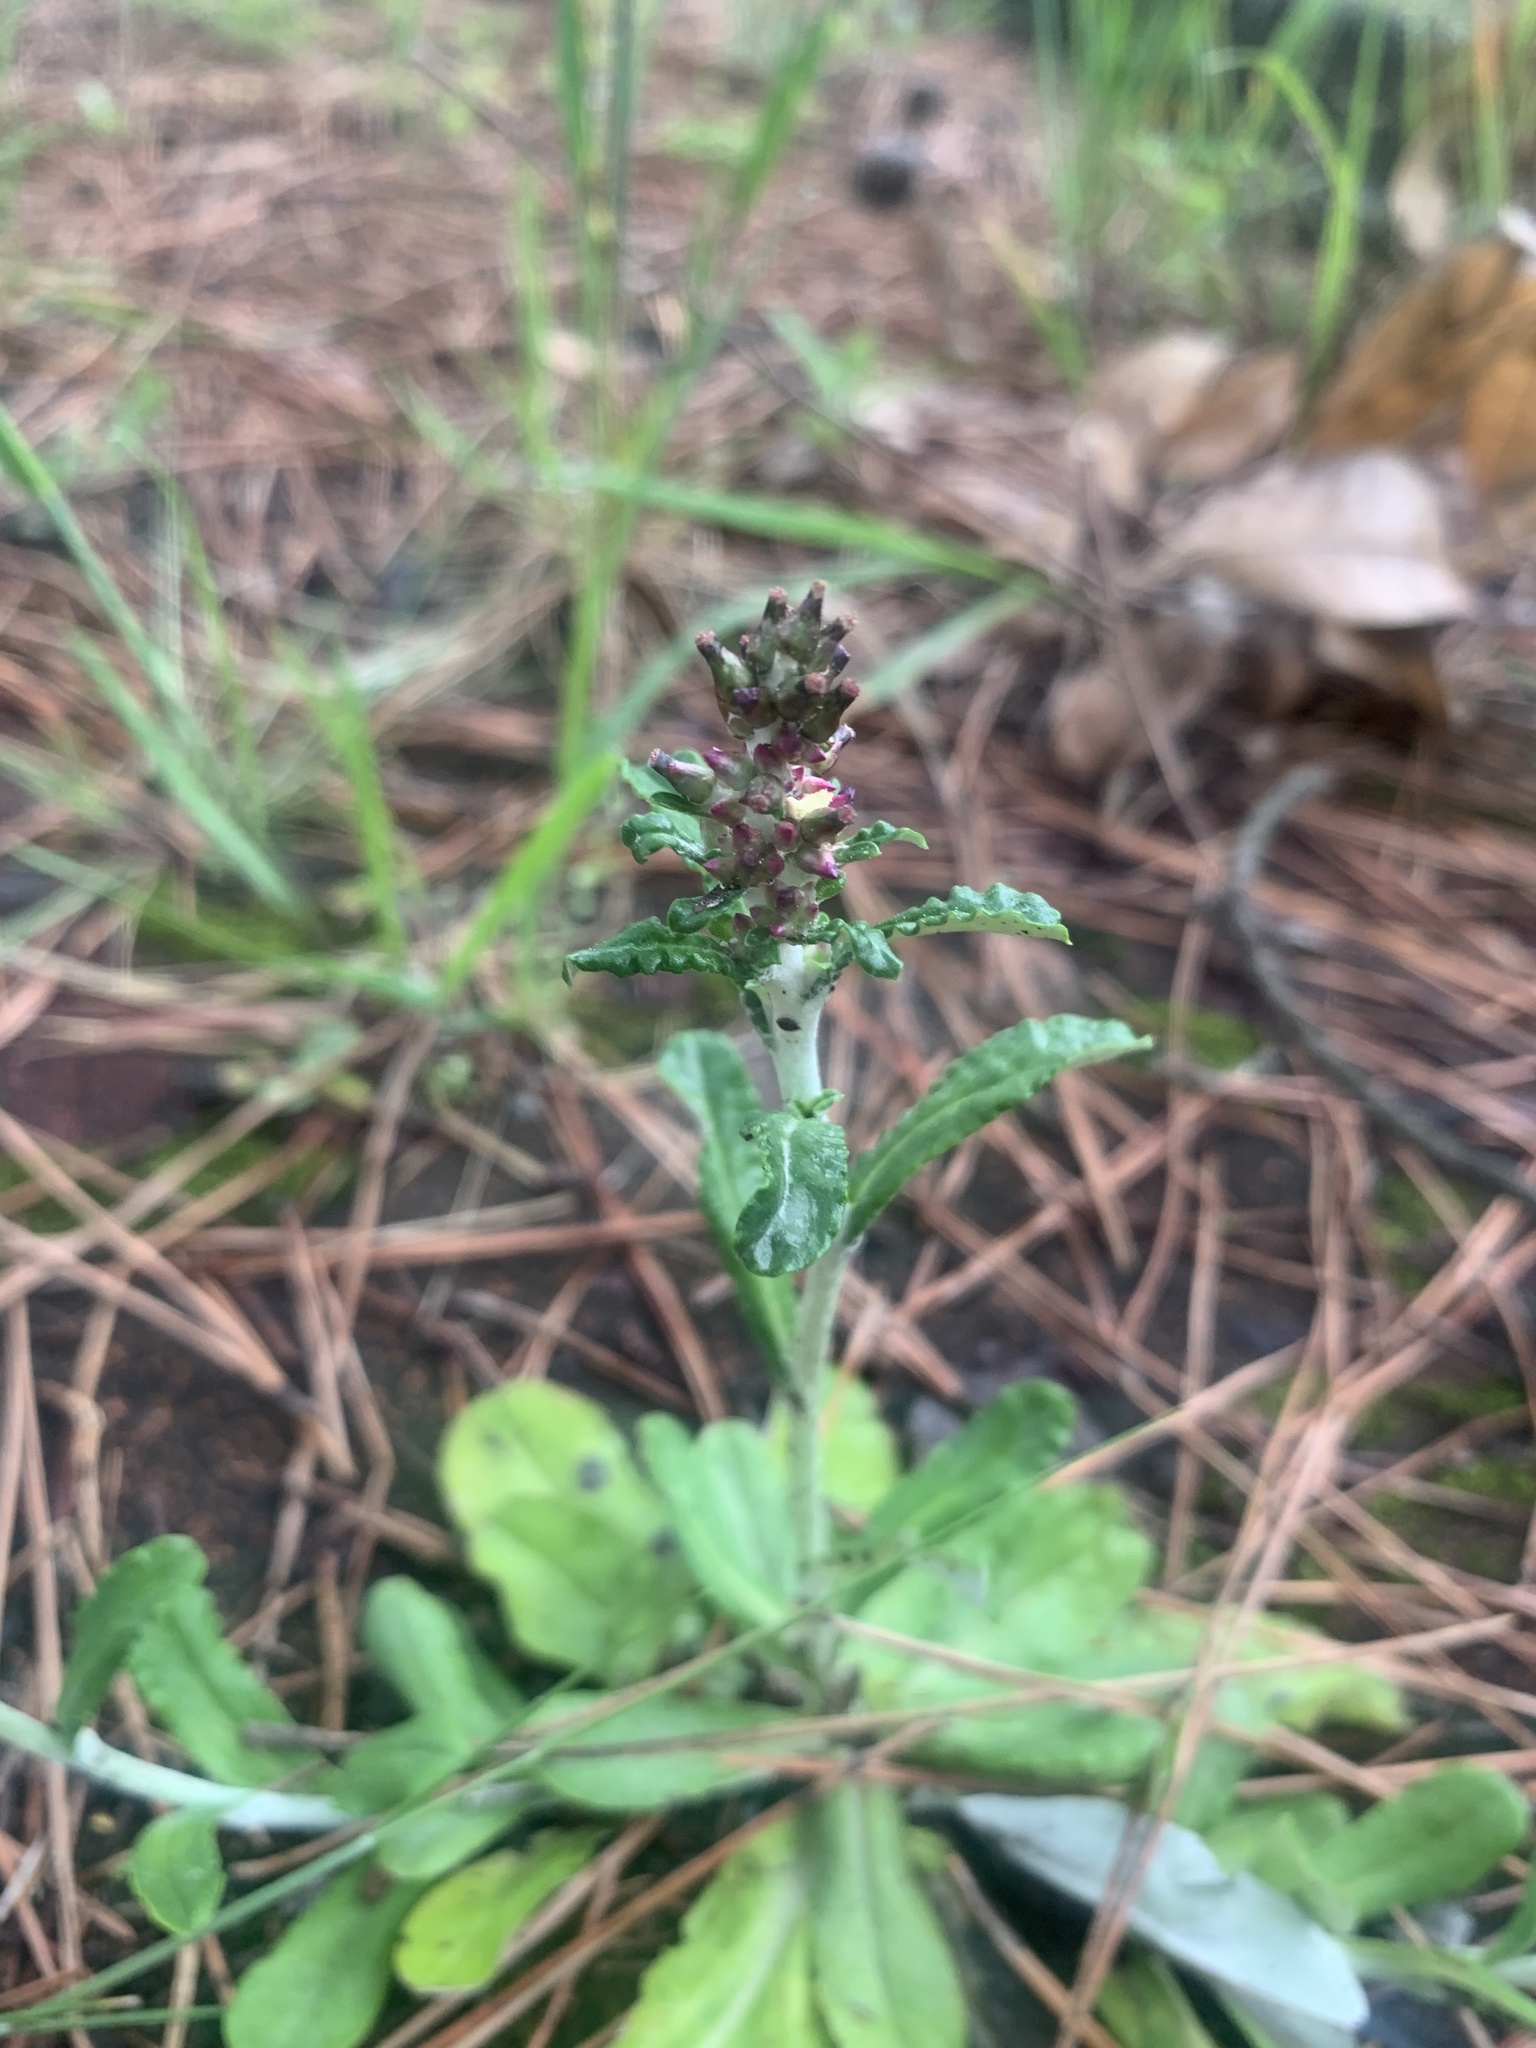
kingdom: Plantae
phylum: Tracheophyta
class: Magnoliopsida
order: Asterales
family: Asteraceae
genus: Gamochaeta
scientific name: Gamochaeta purpurea
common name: Purple cudweed
